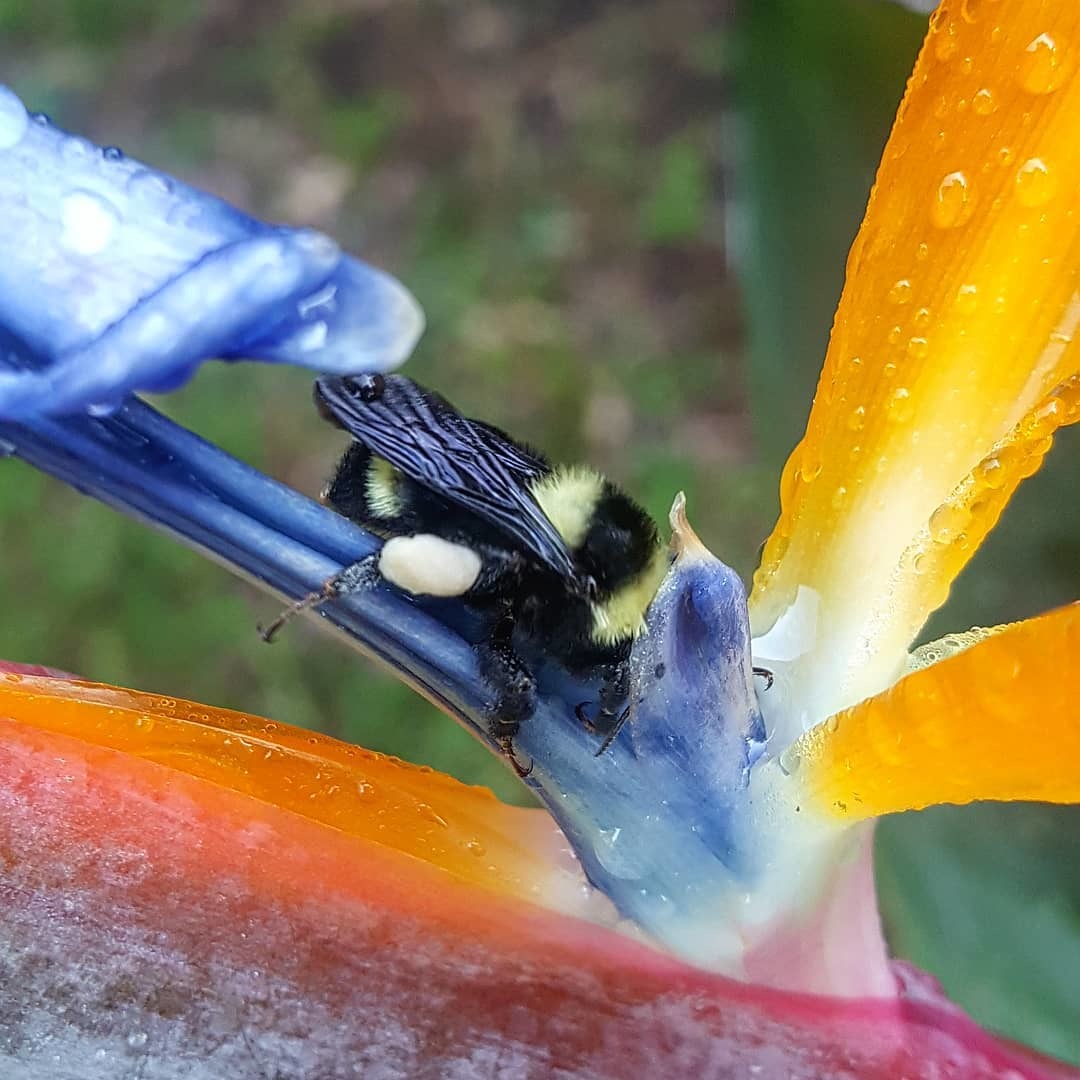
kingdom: Animalia
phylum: Arthropoda
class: Insecta
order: Hymenoptera
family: Apidae
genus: Bombus
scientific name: Bombus medius
